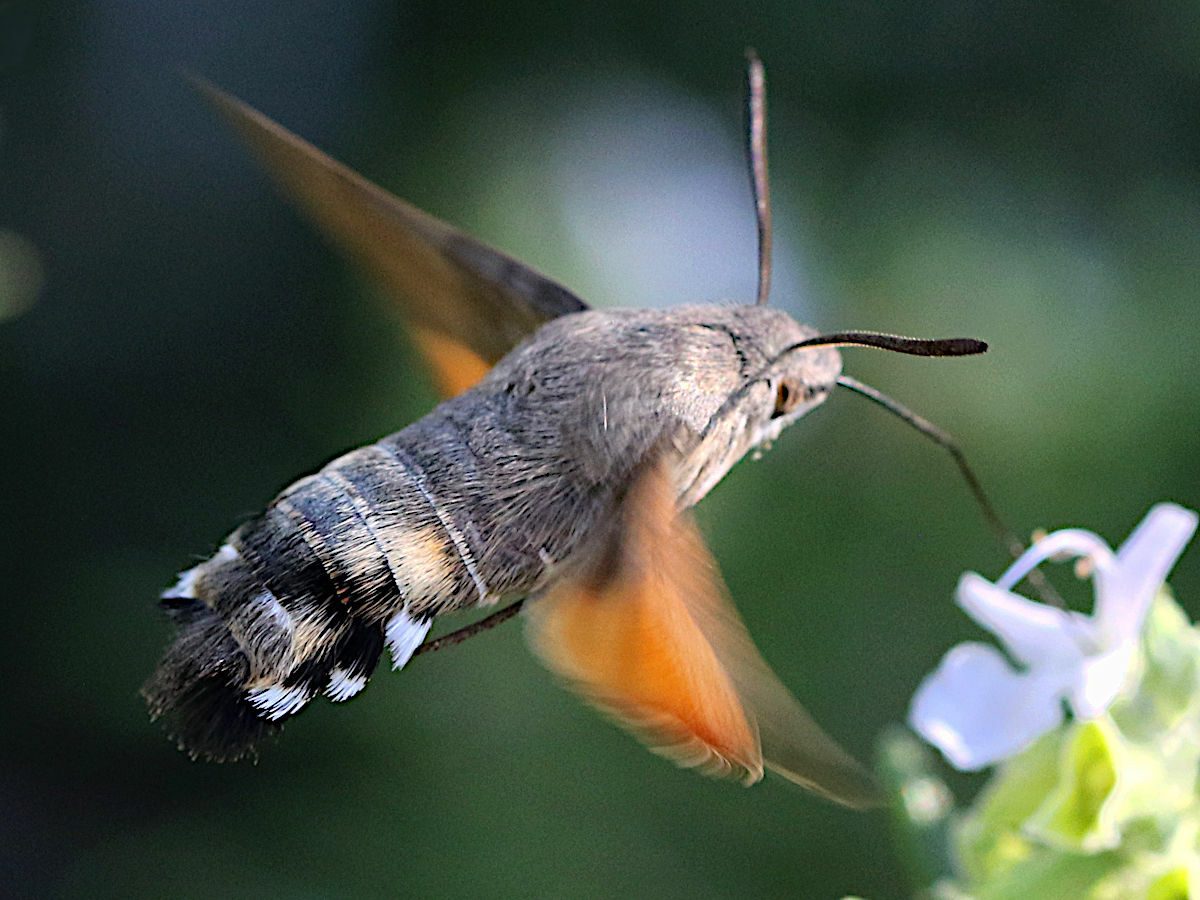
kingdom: Animalia
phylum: Arthropoda
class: Insecta
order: Lepidoptera
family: Sphingidae
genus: Macroglossum
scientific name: Macroglossum stellatarum
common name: Humming-bird hawk-moth
